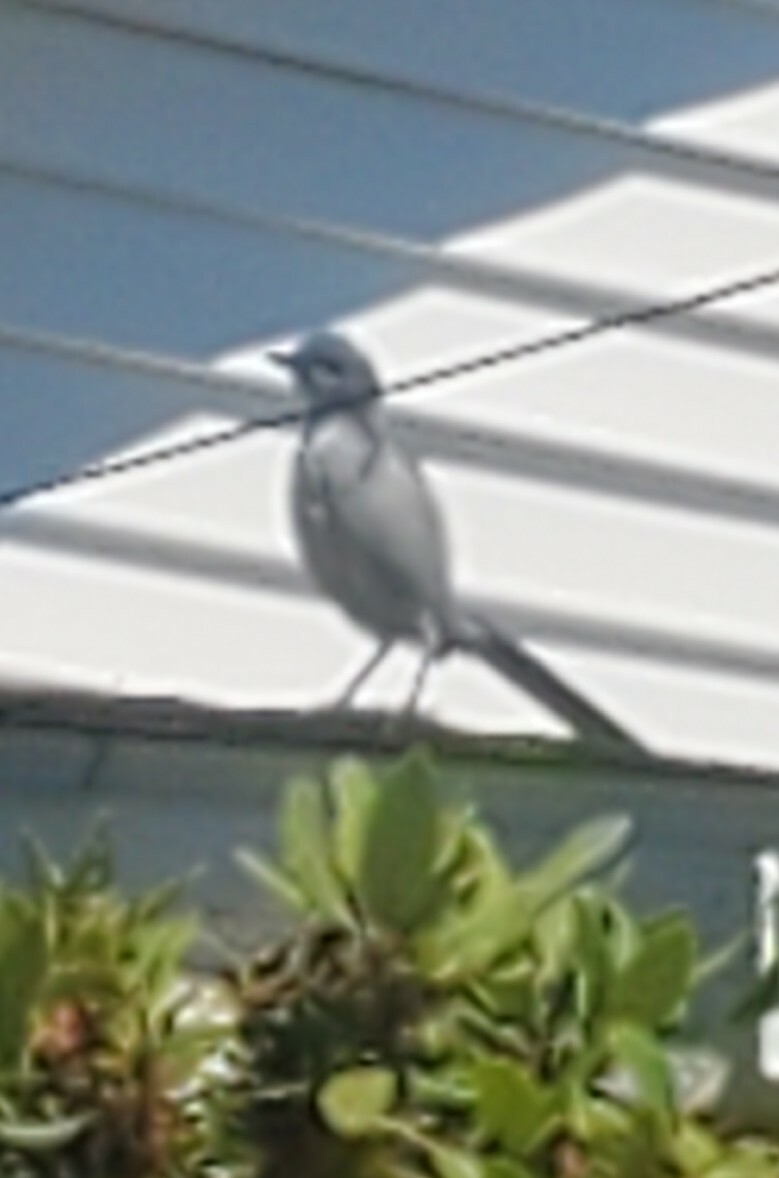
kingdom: Animalia
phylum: Chordata
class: Aves
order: Passeriformes
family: Corvidae
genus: Aphelocoma
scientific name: Aphelocoma californica
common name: California scrub-jay
